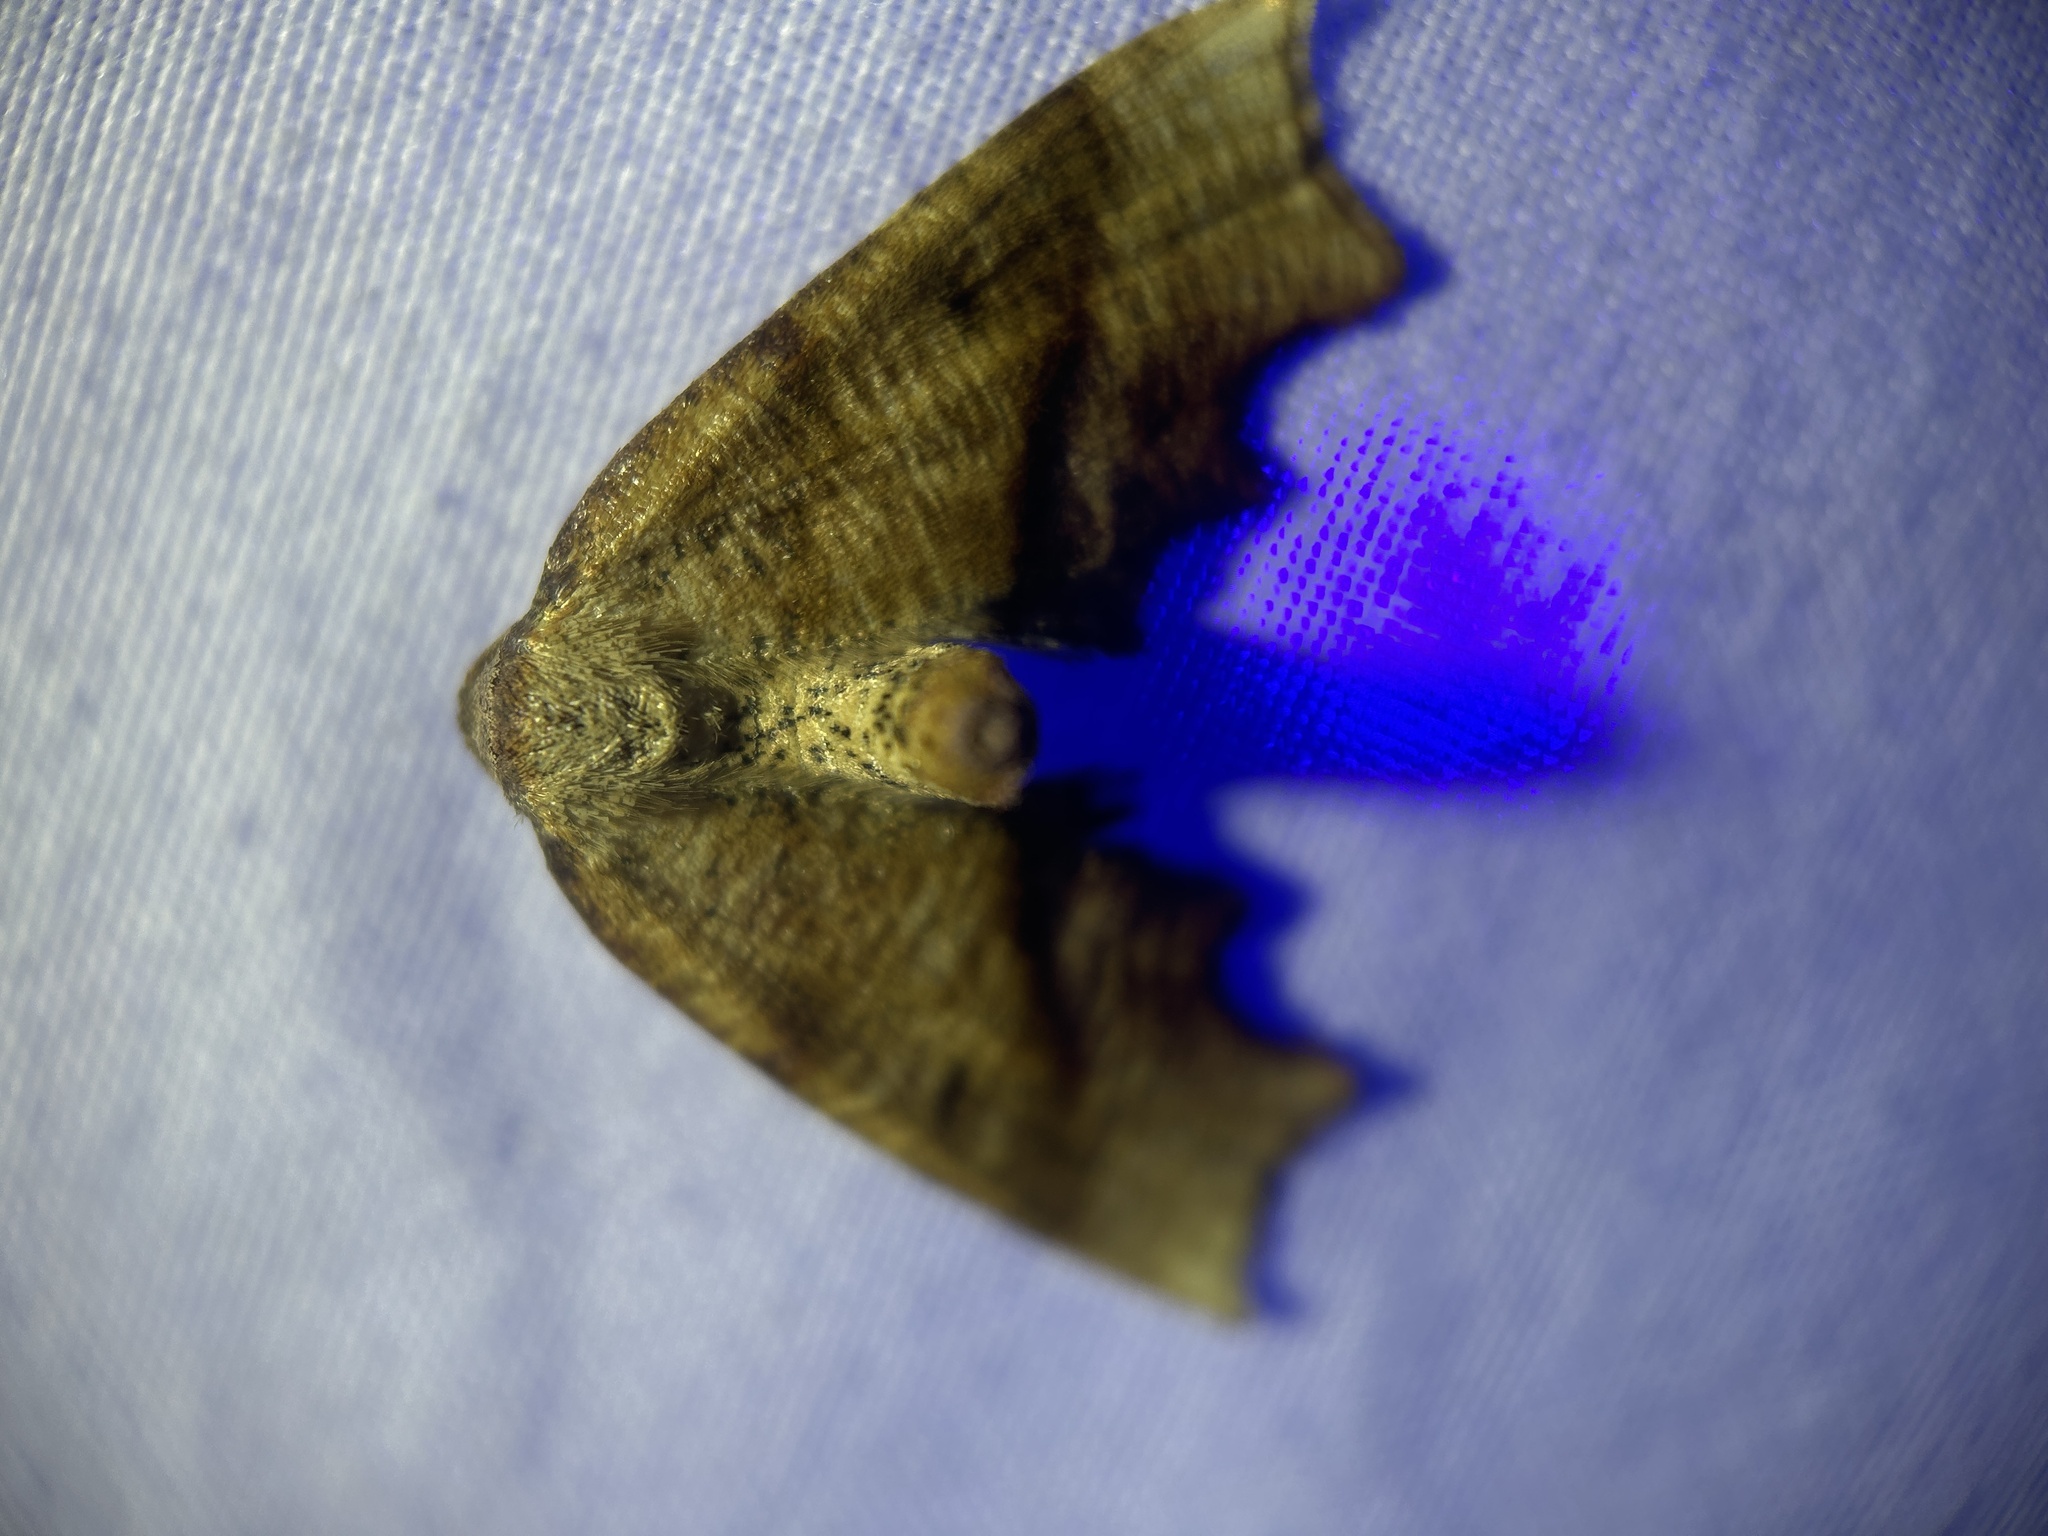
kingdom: Animalia
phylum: Arthropoda
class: Insecta
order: Lepidoptera
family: Geometridae
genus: Plagodis
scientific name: Plagodis fervidaria
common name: Fervid plagodis
